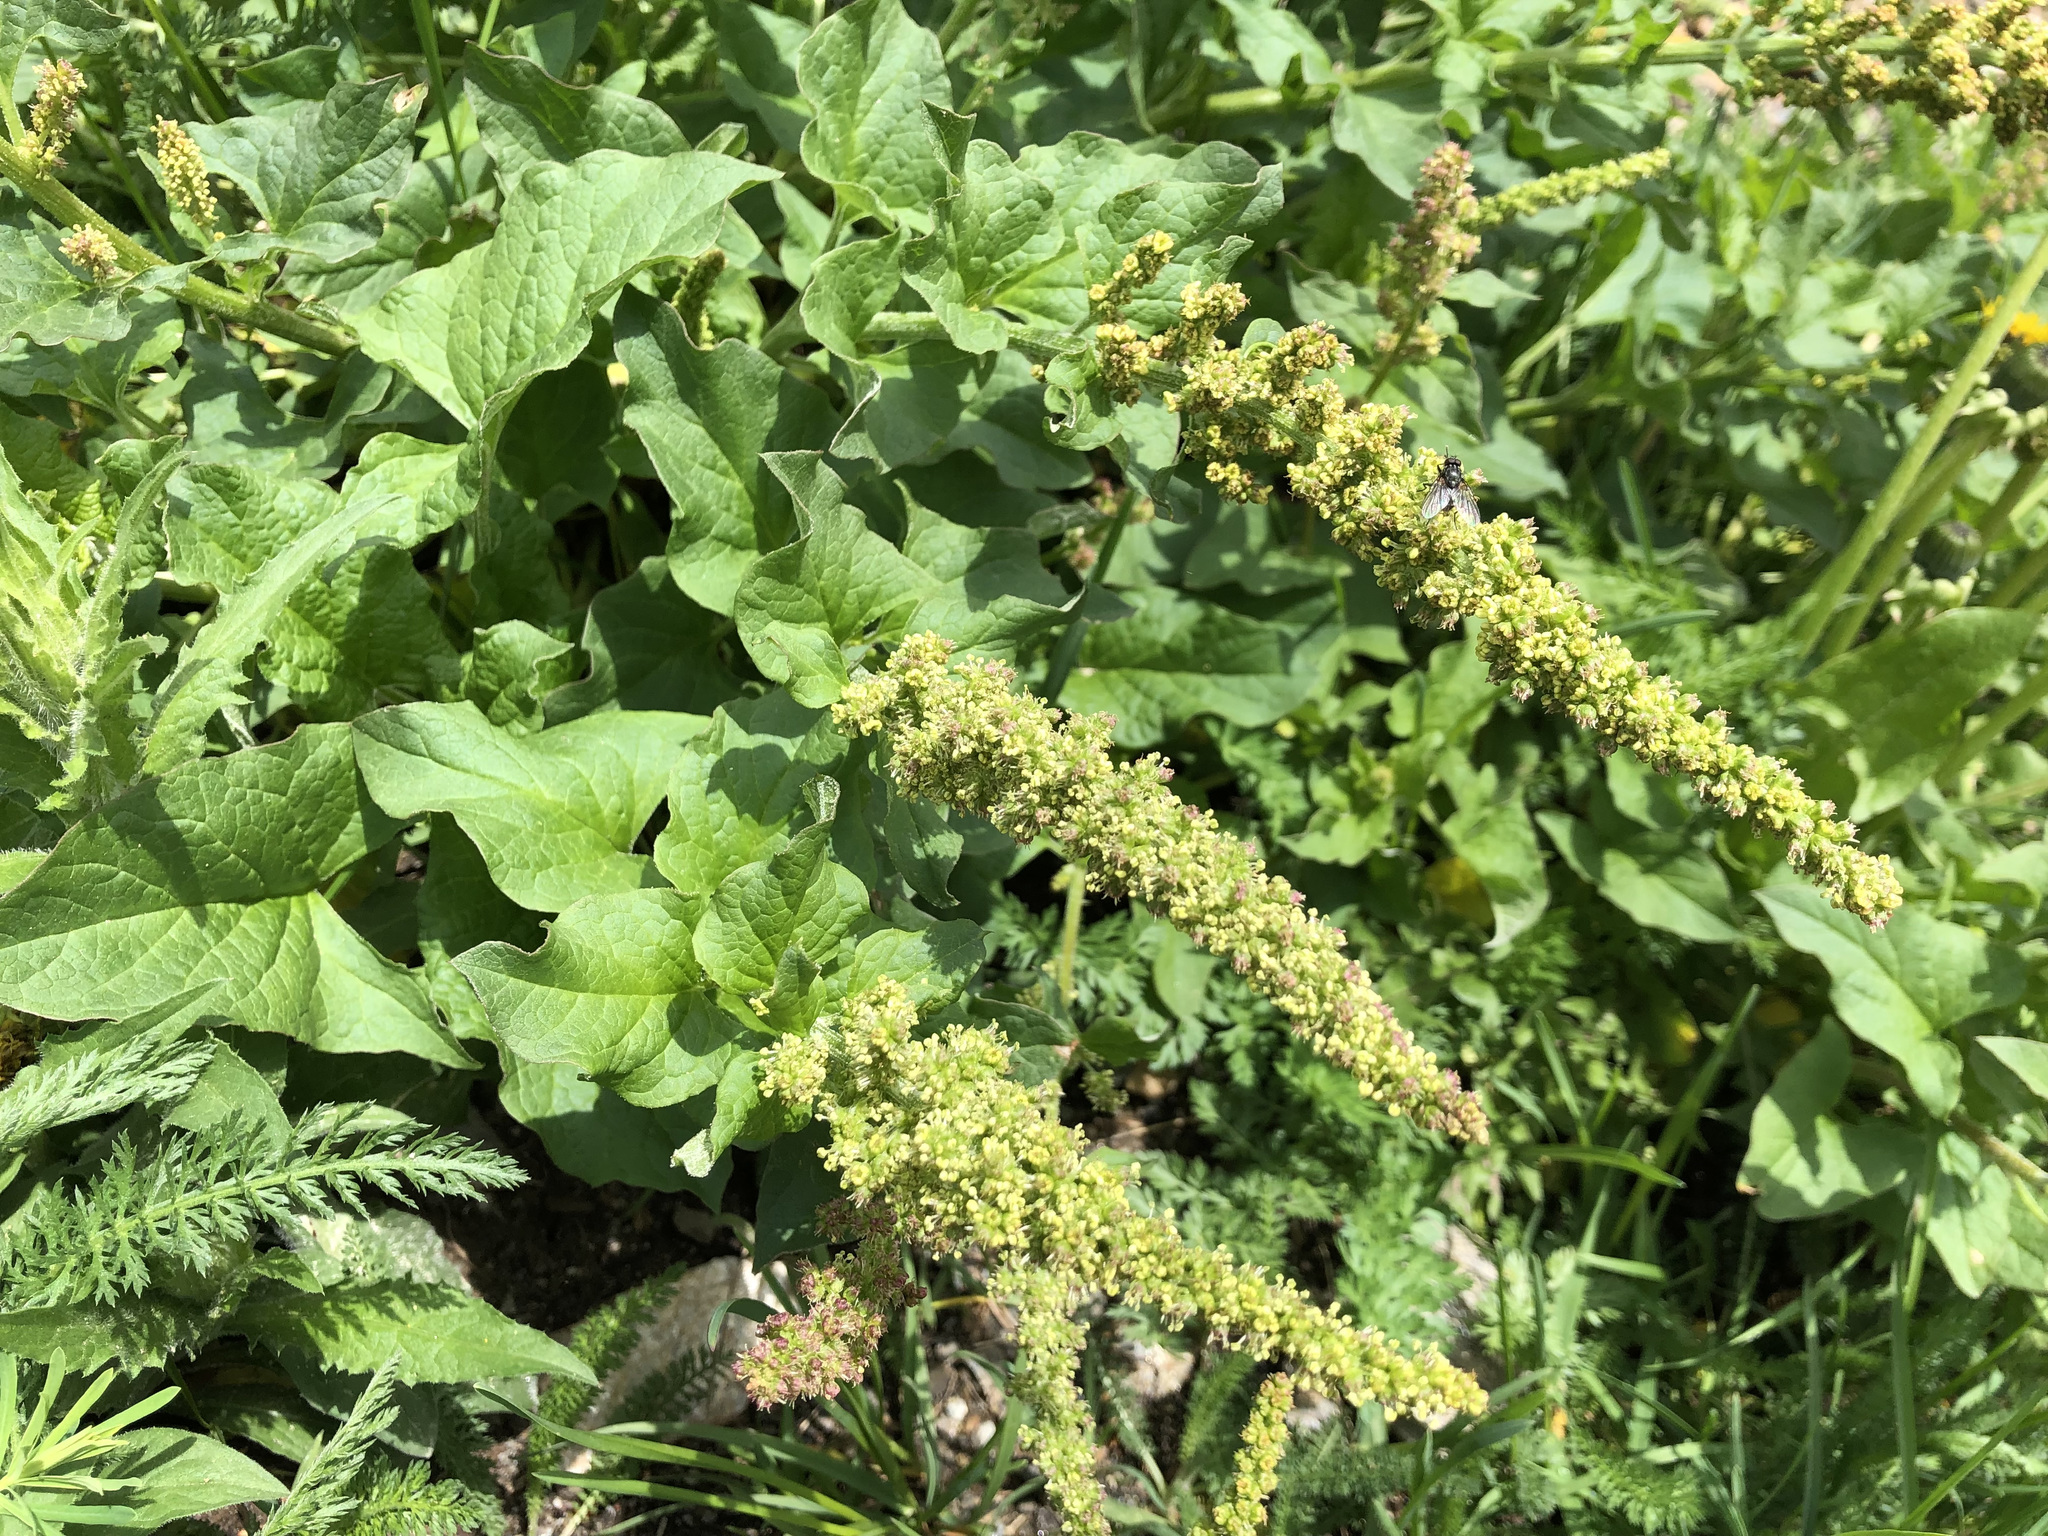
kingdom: Plantae
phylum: Tracheophyta
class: Magnoliopsida
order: Caryophyllales
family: Amaranthaceae
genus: Blitum
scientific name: Blitum bonus-henricus
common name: Good king henry
